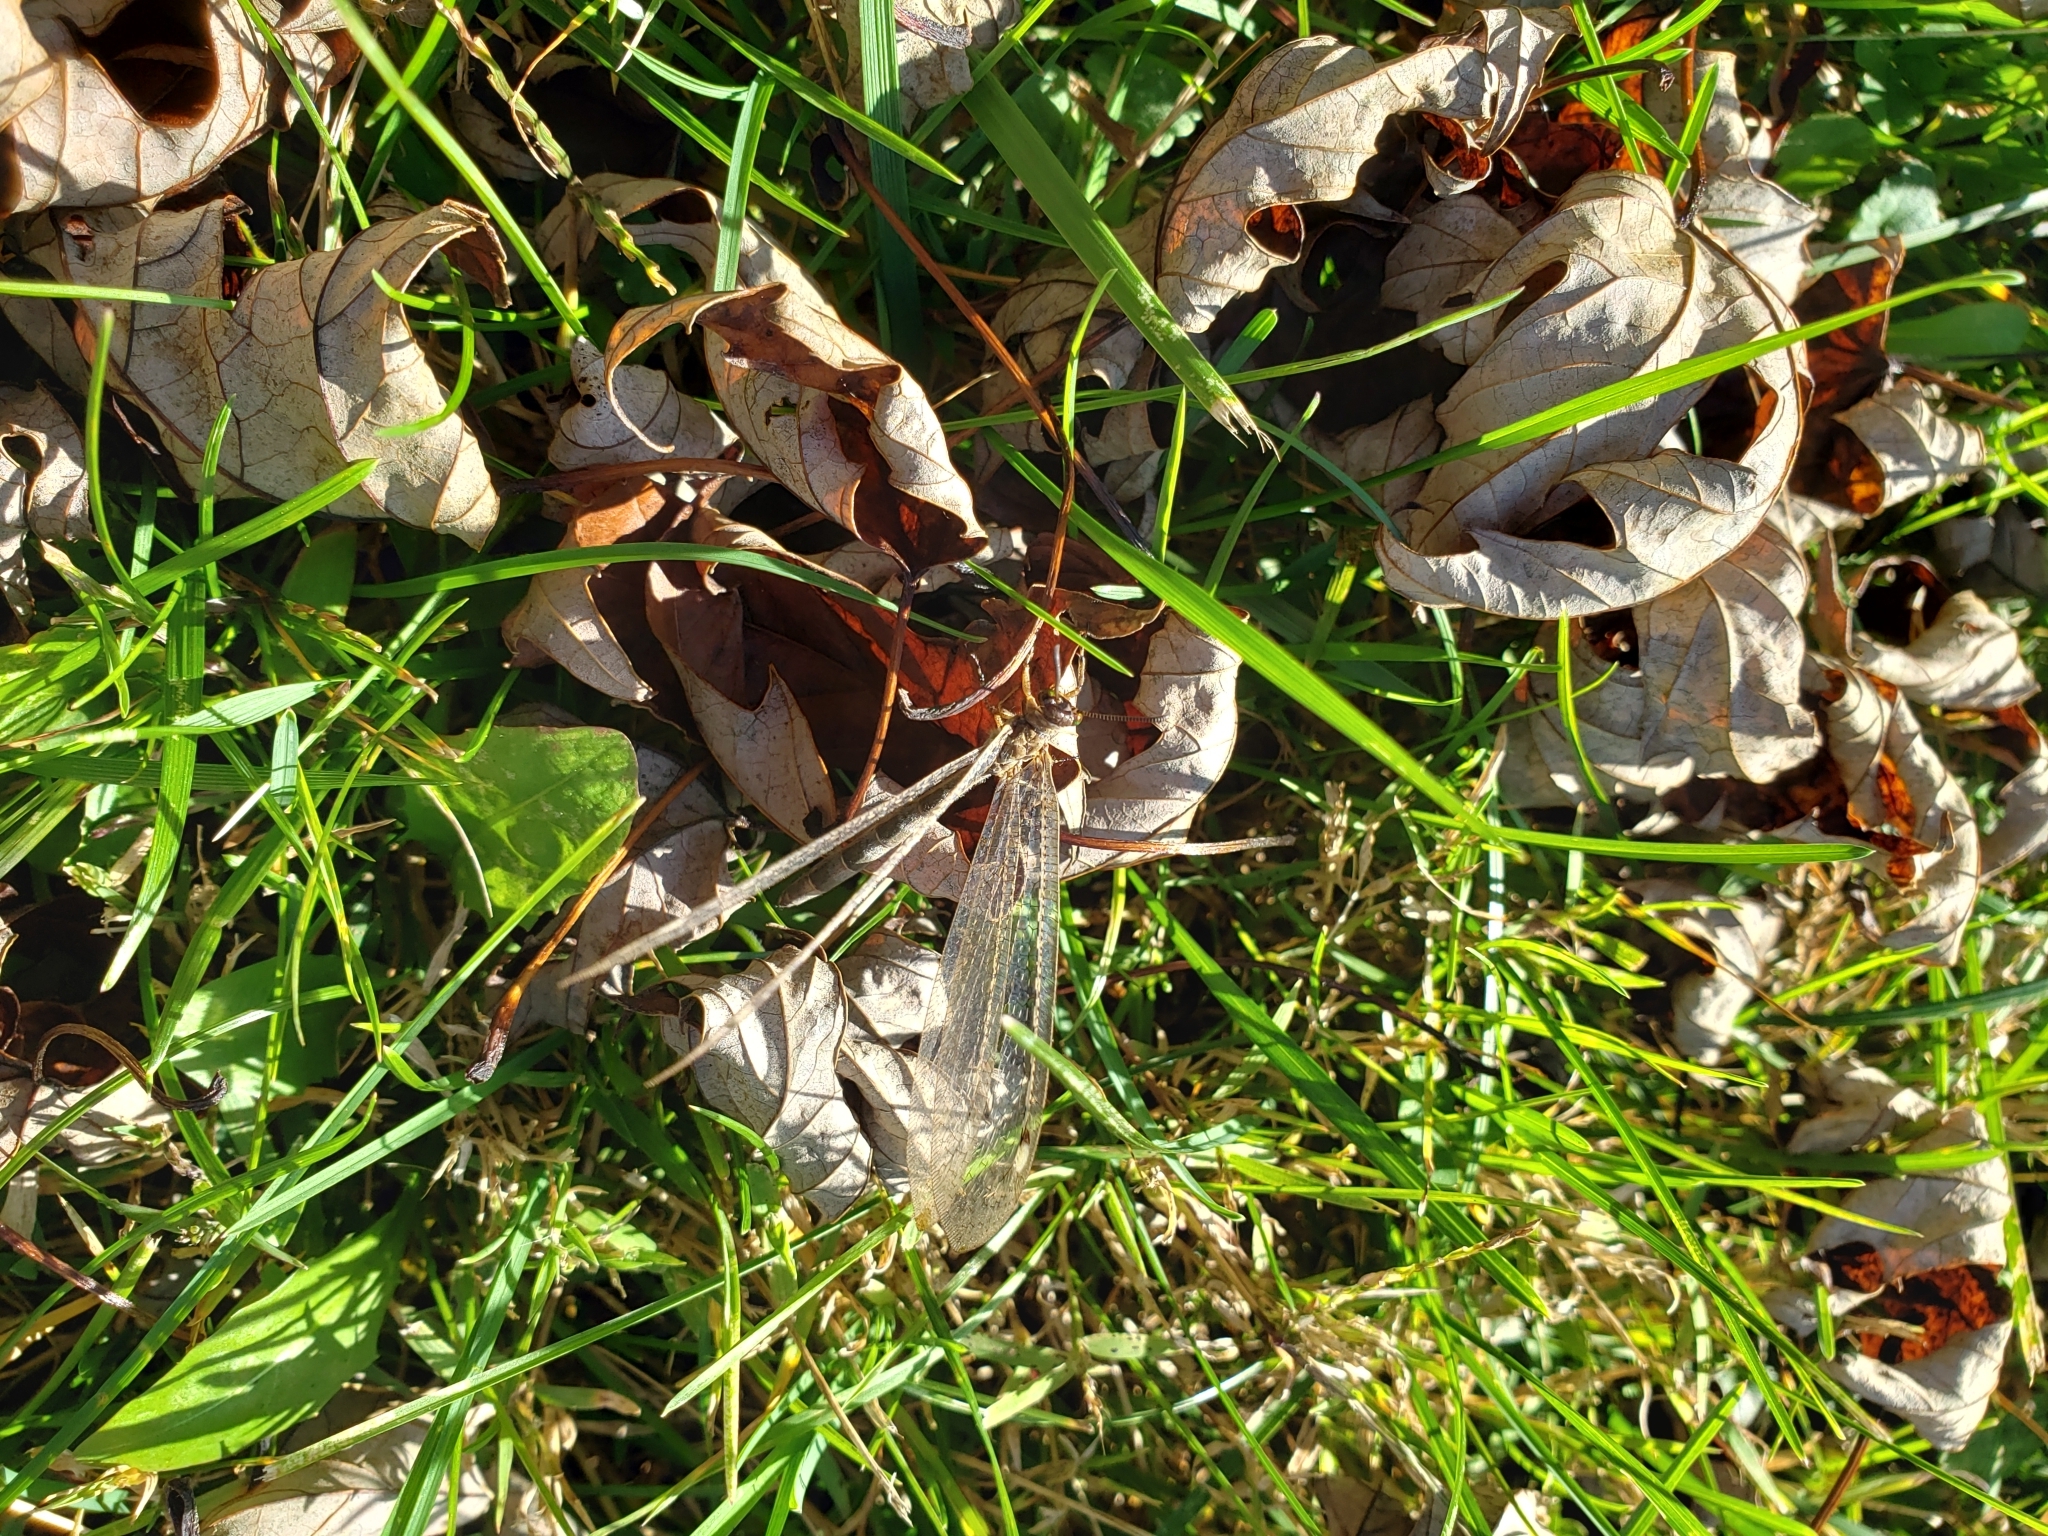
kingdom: Animalia
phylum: Arthropoda
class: Insecta
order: Neuroptera
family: Myrmeleontidae
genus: Myrmeleon
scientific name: Myrmeleon immaculatus
